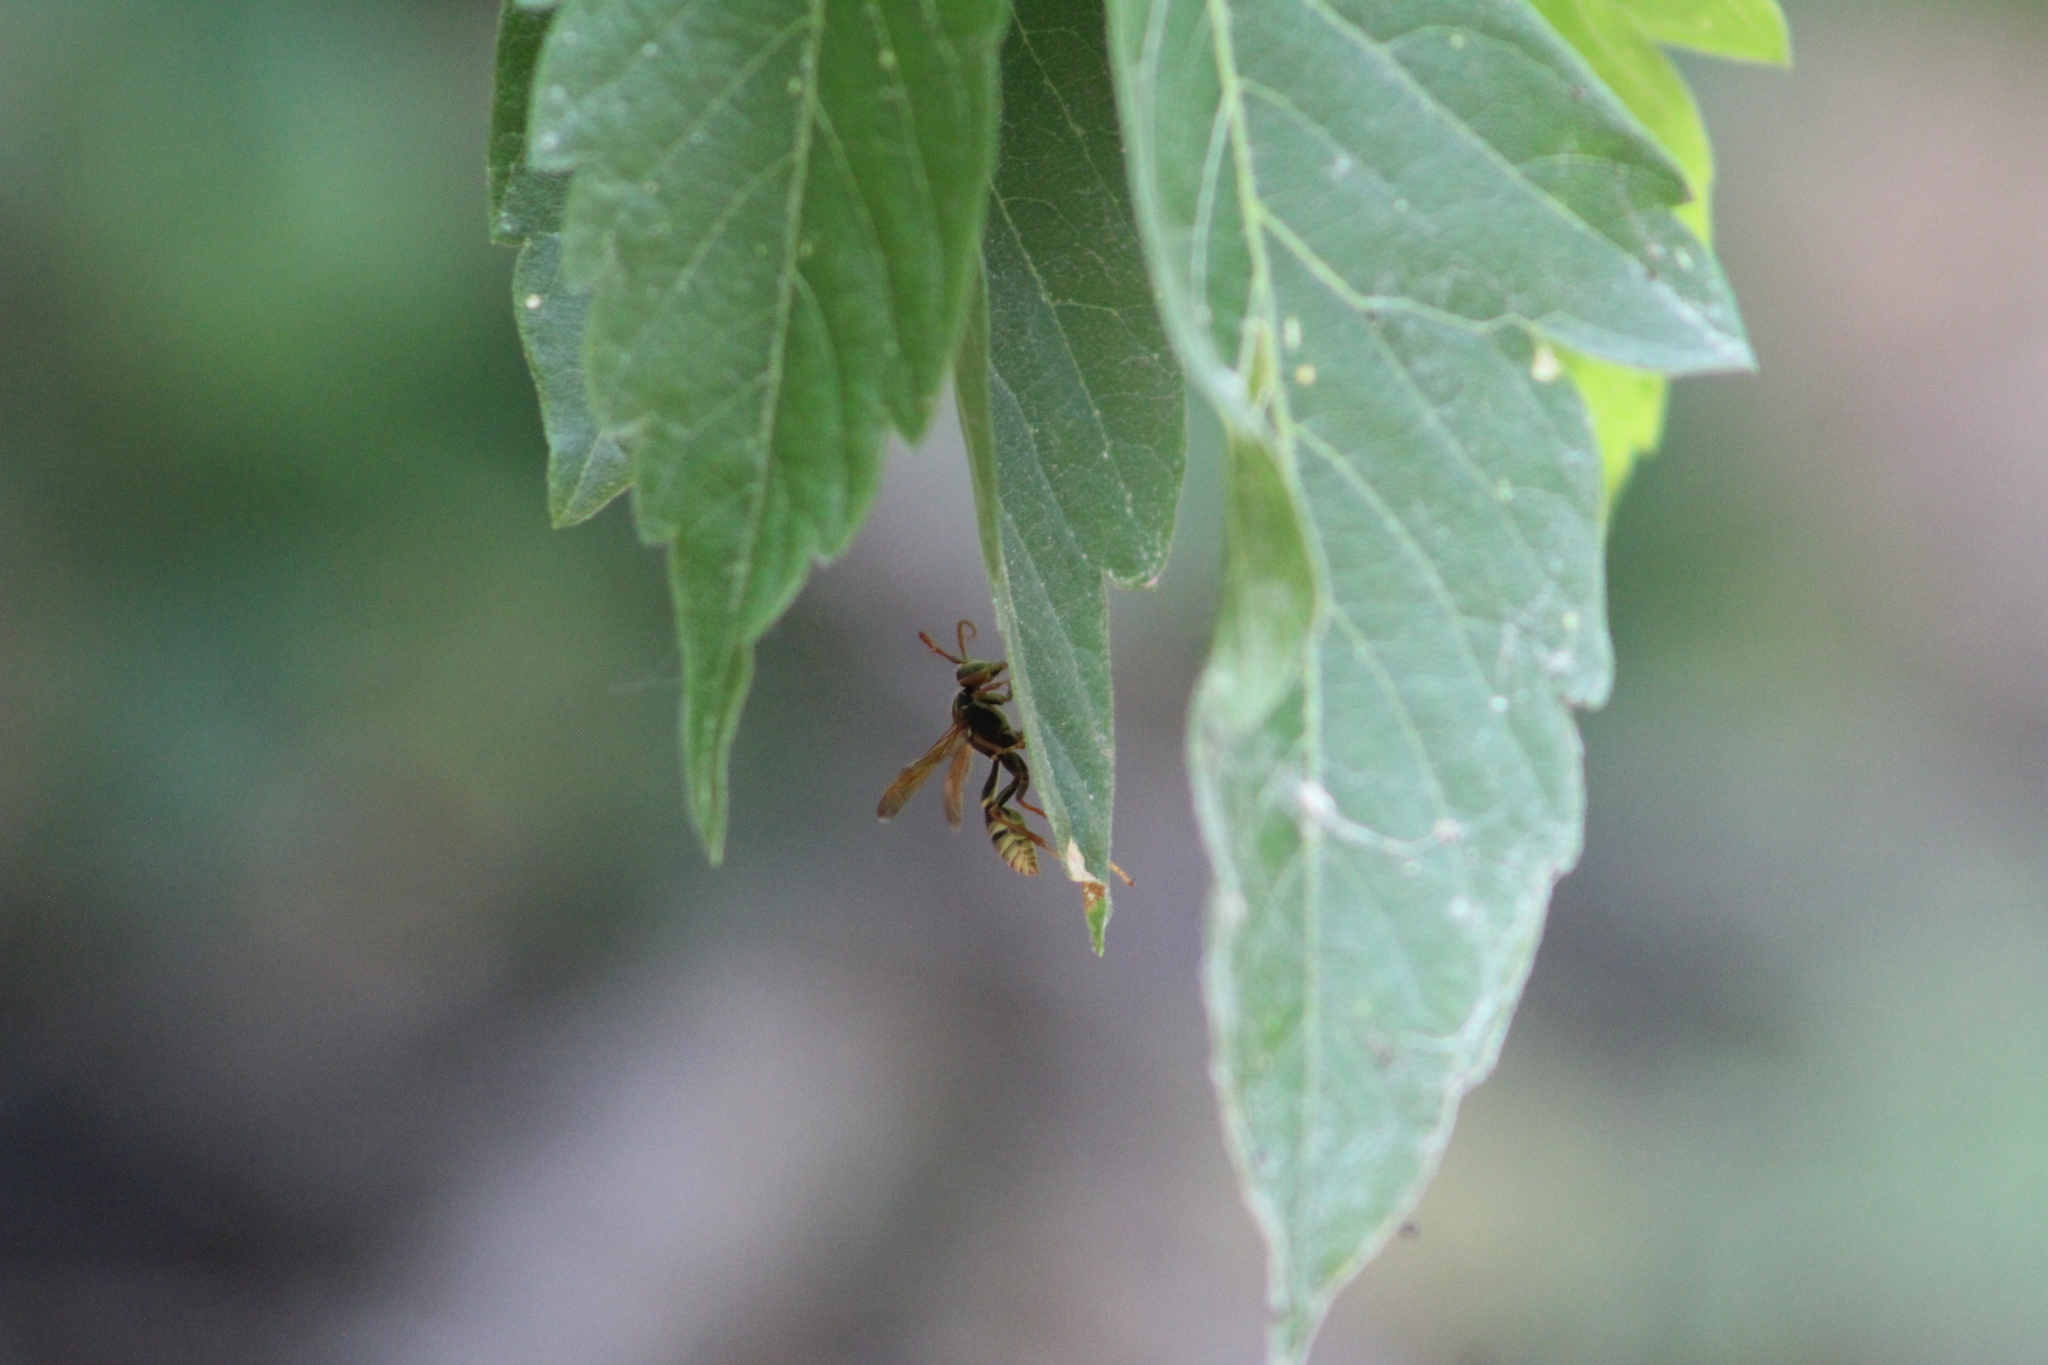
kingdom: Animalia
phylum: Arthropoda
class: Insecta
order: Hymenoptera
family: Vespidae
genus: Mischocyttarus
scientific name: Mischocyttarus flavitarsis
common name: Wasp
